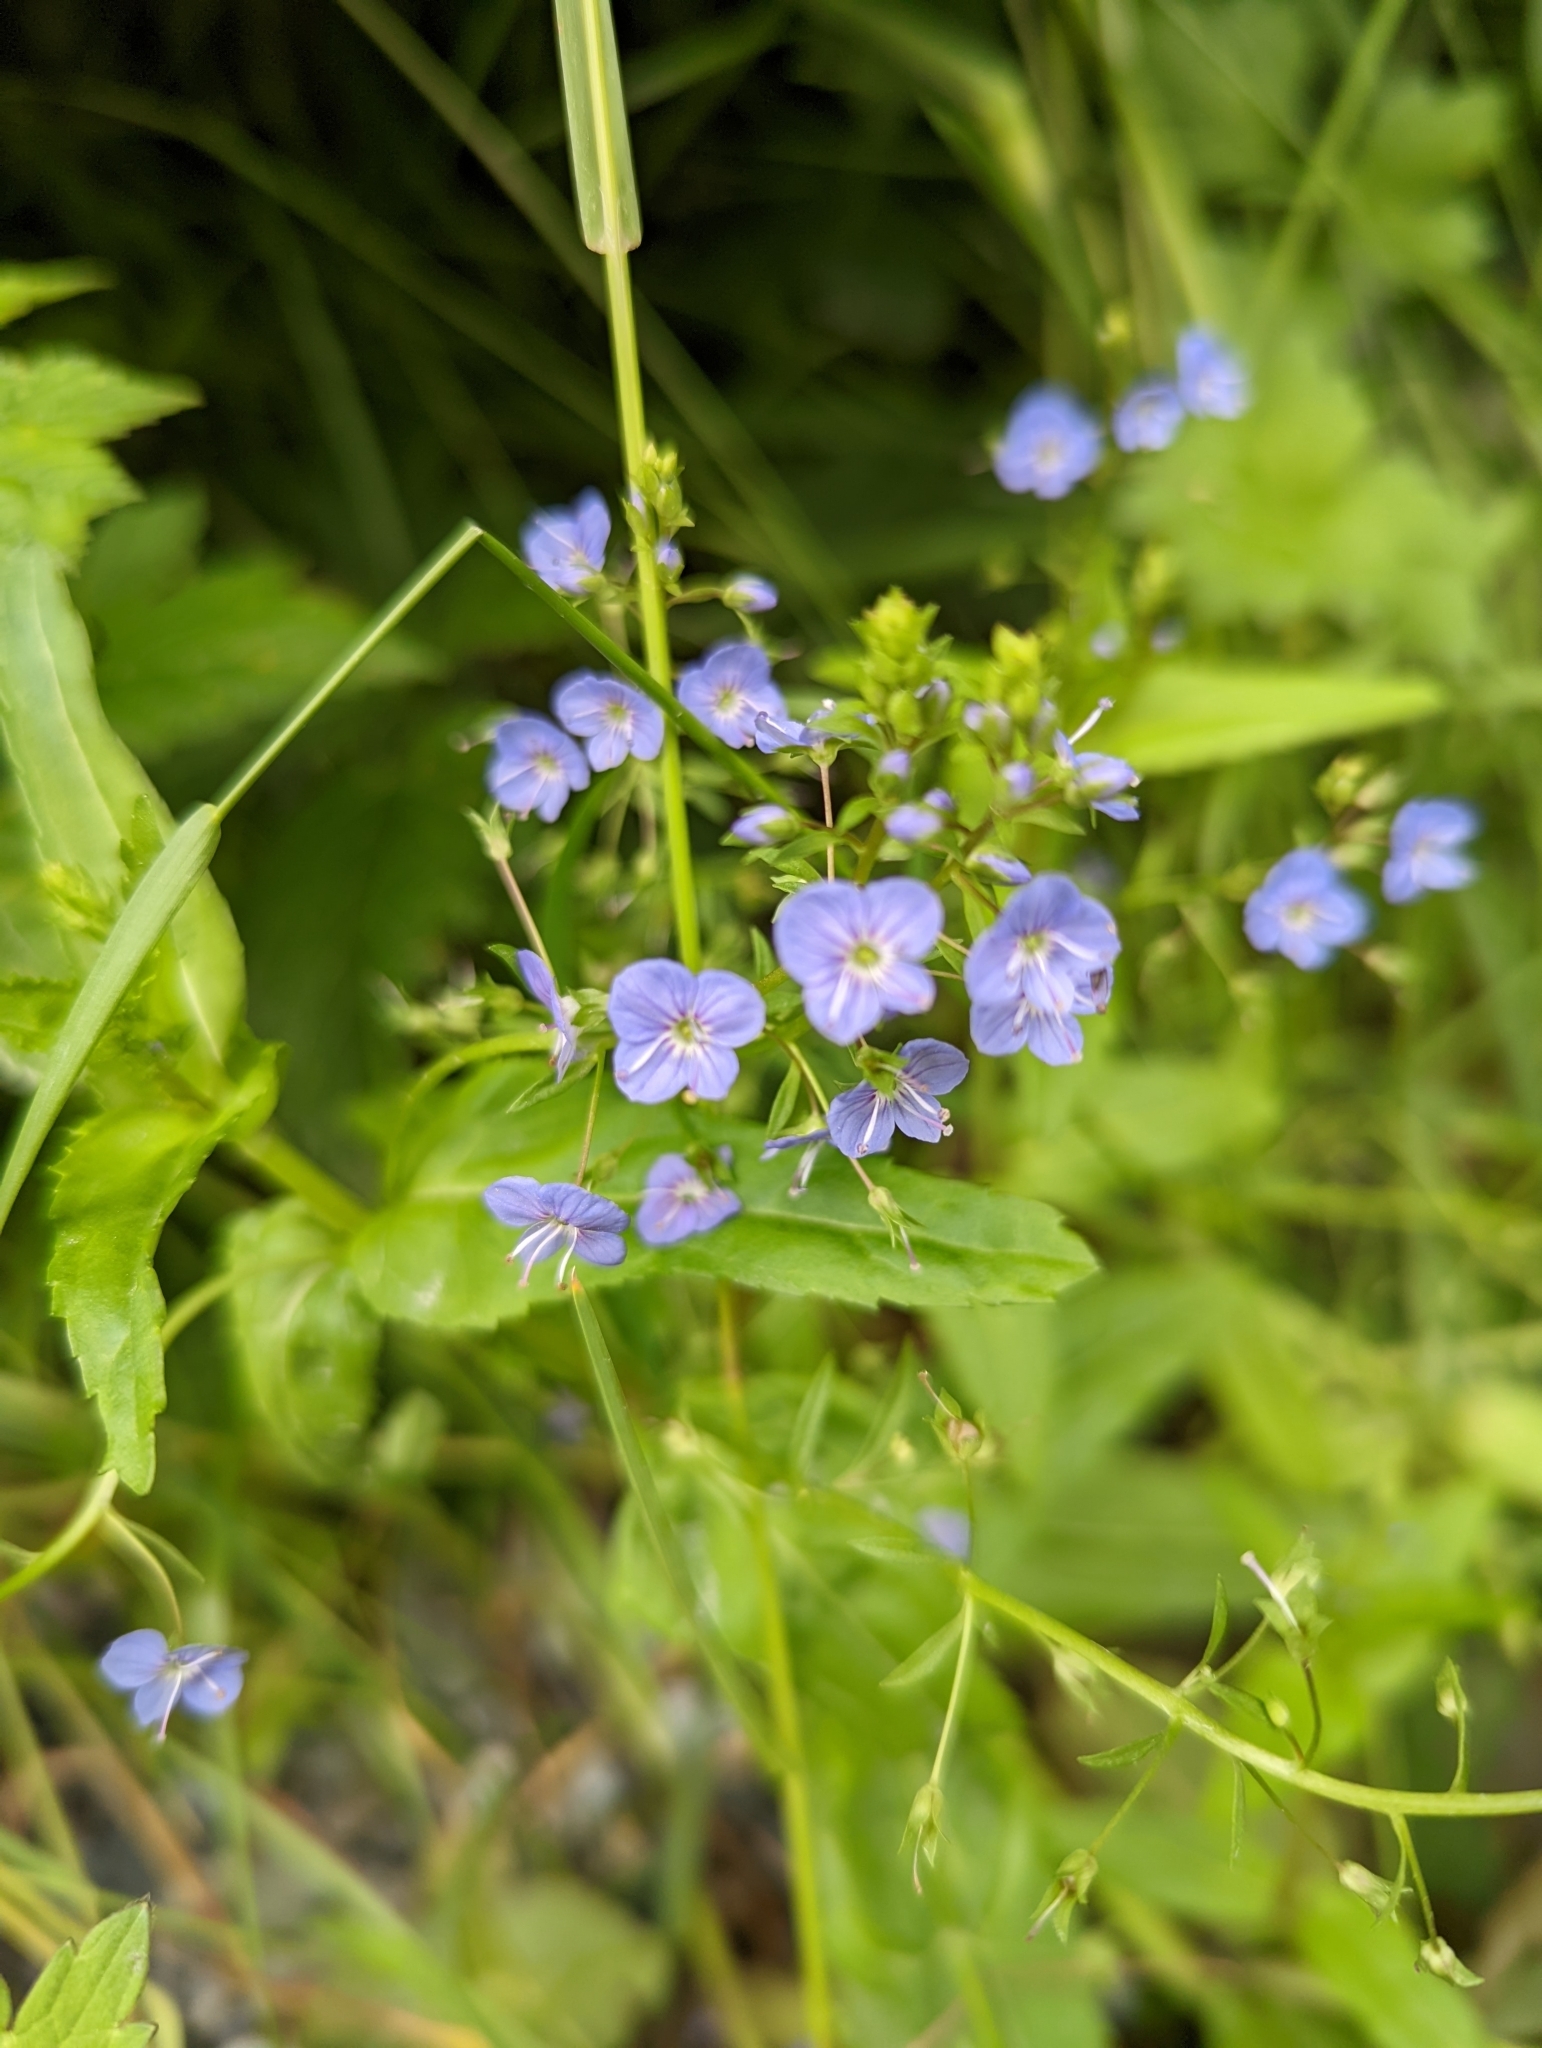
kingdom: Plantae
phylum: Tracheophyta
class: Magnoliopsida
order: Lamiales
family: Plantaginaceae
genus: Veronica
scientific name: Veronica americana
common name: American brooklime
